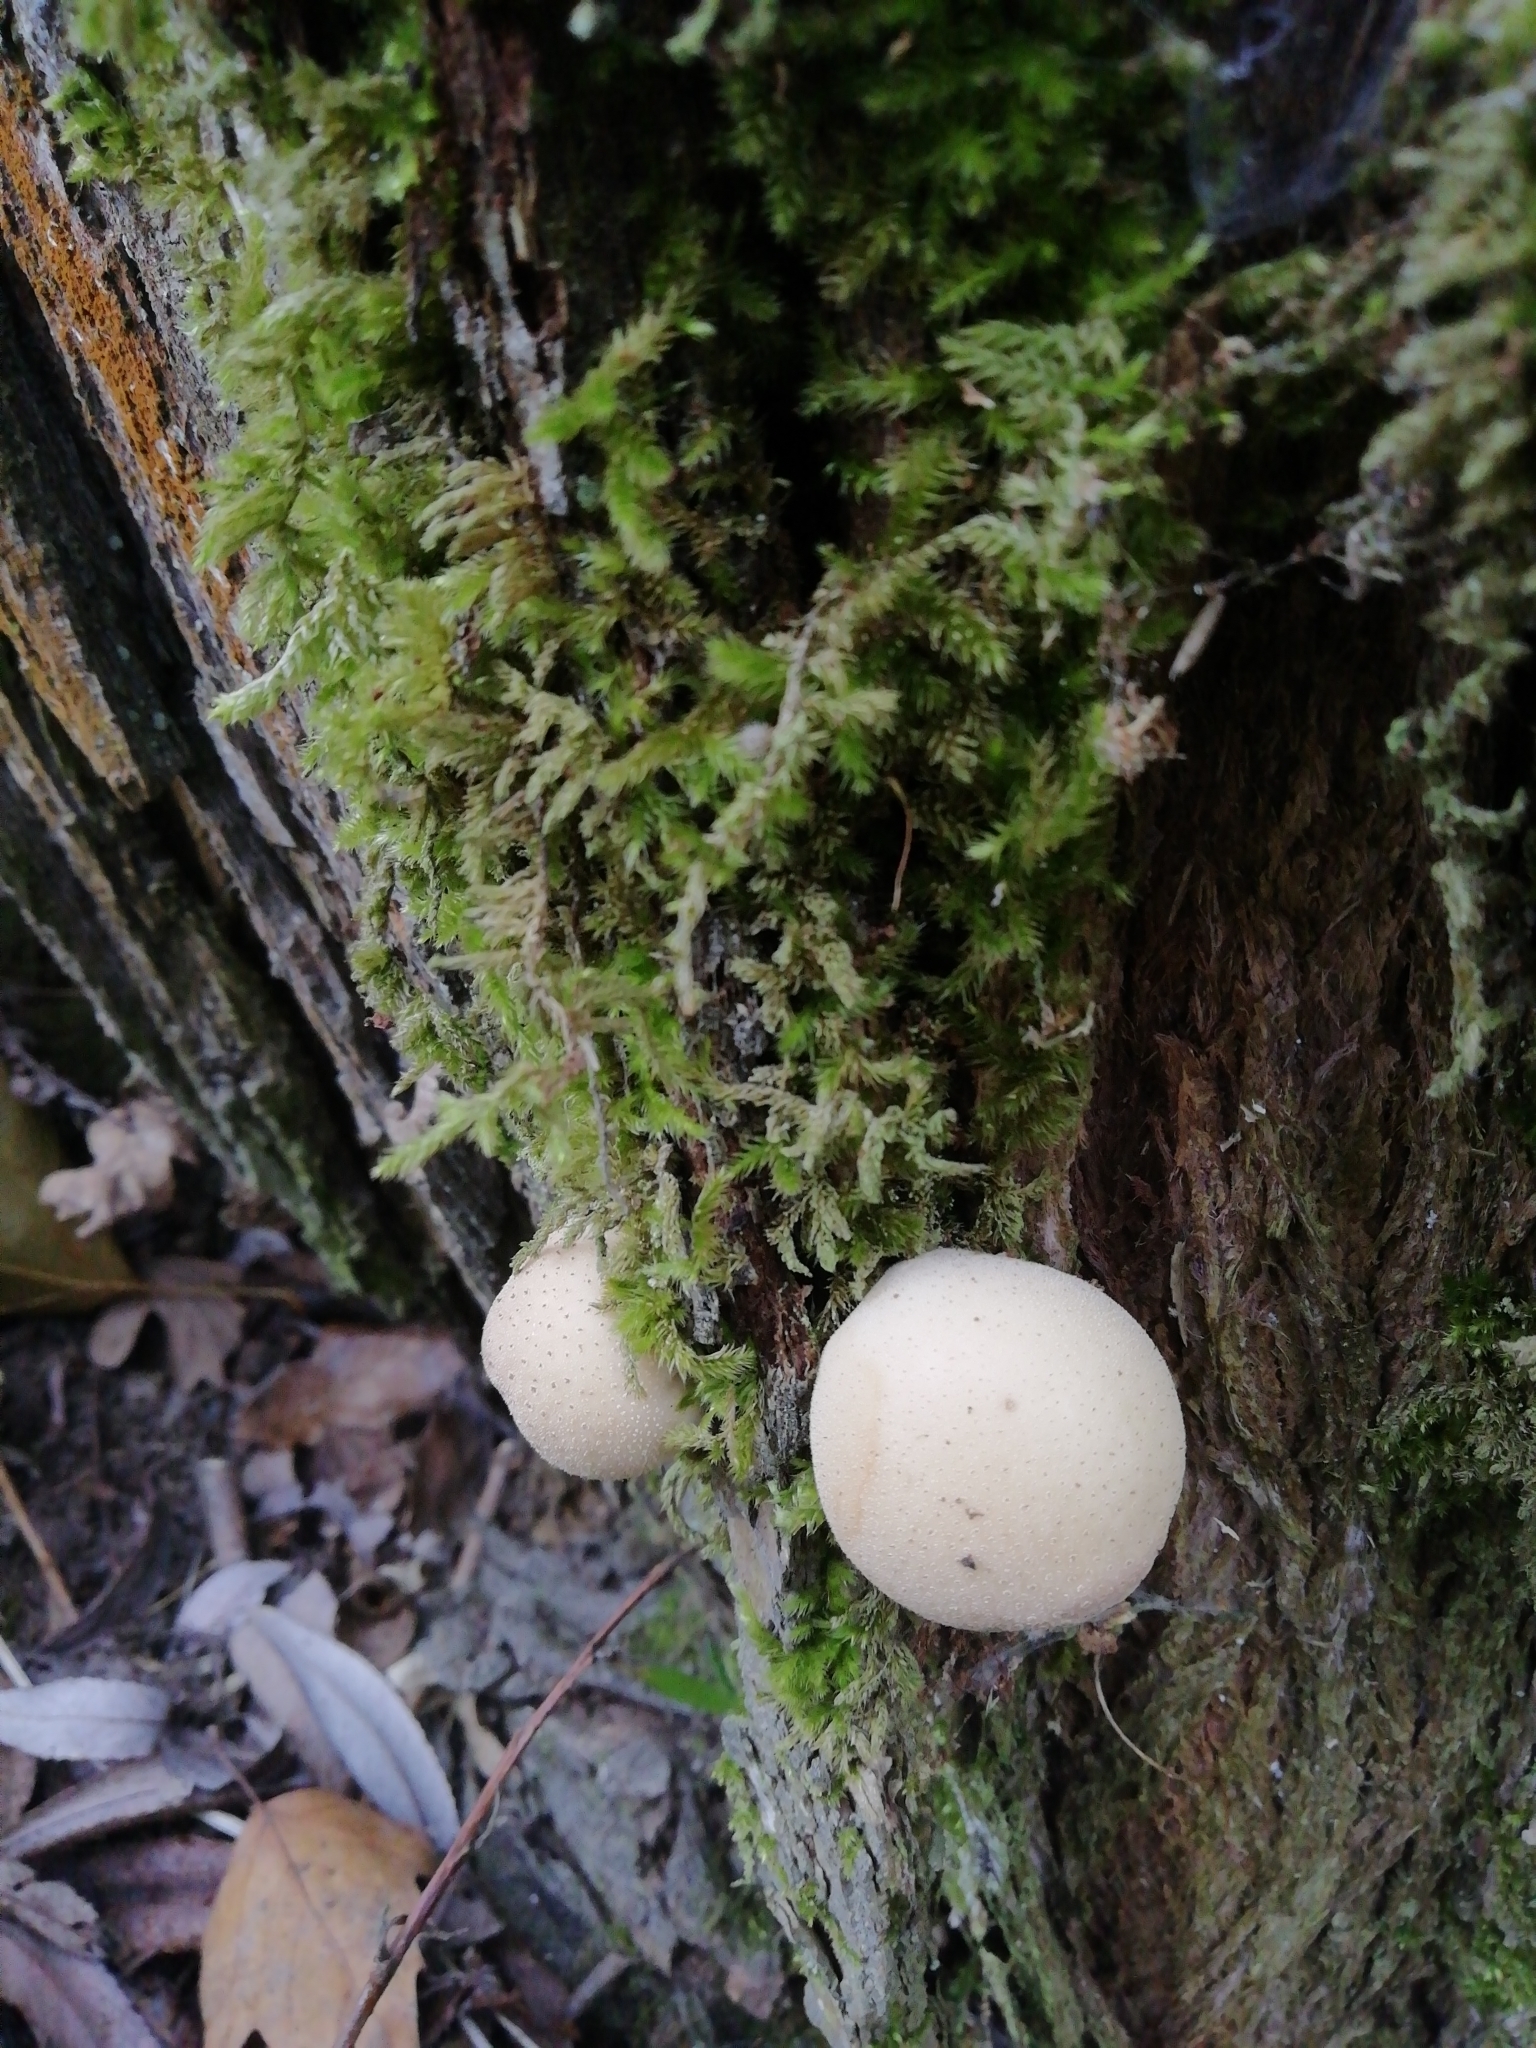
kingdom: Fungi
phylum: Basidiomycota
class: Agaricomycetes
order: Agaricales
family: Lycoperdaceae
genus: Apioperdon
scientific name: Apioperdon pyriforme
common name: Pear-shaped puffball
